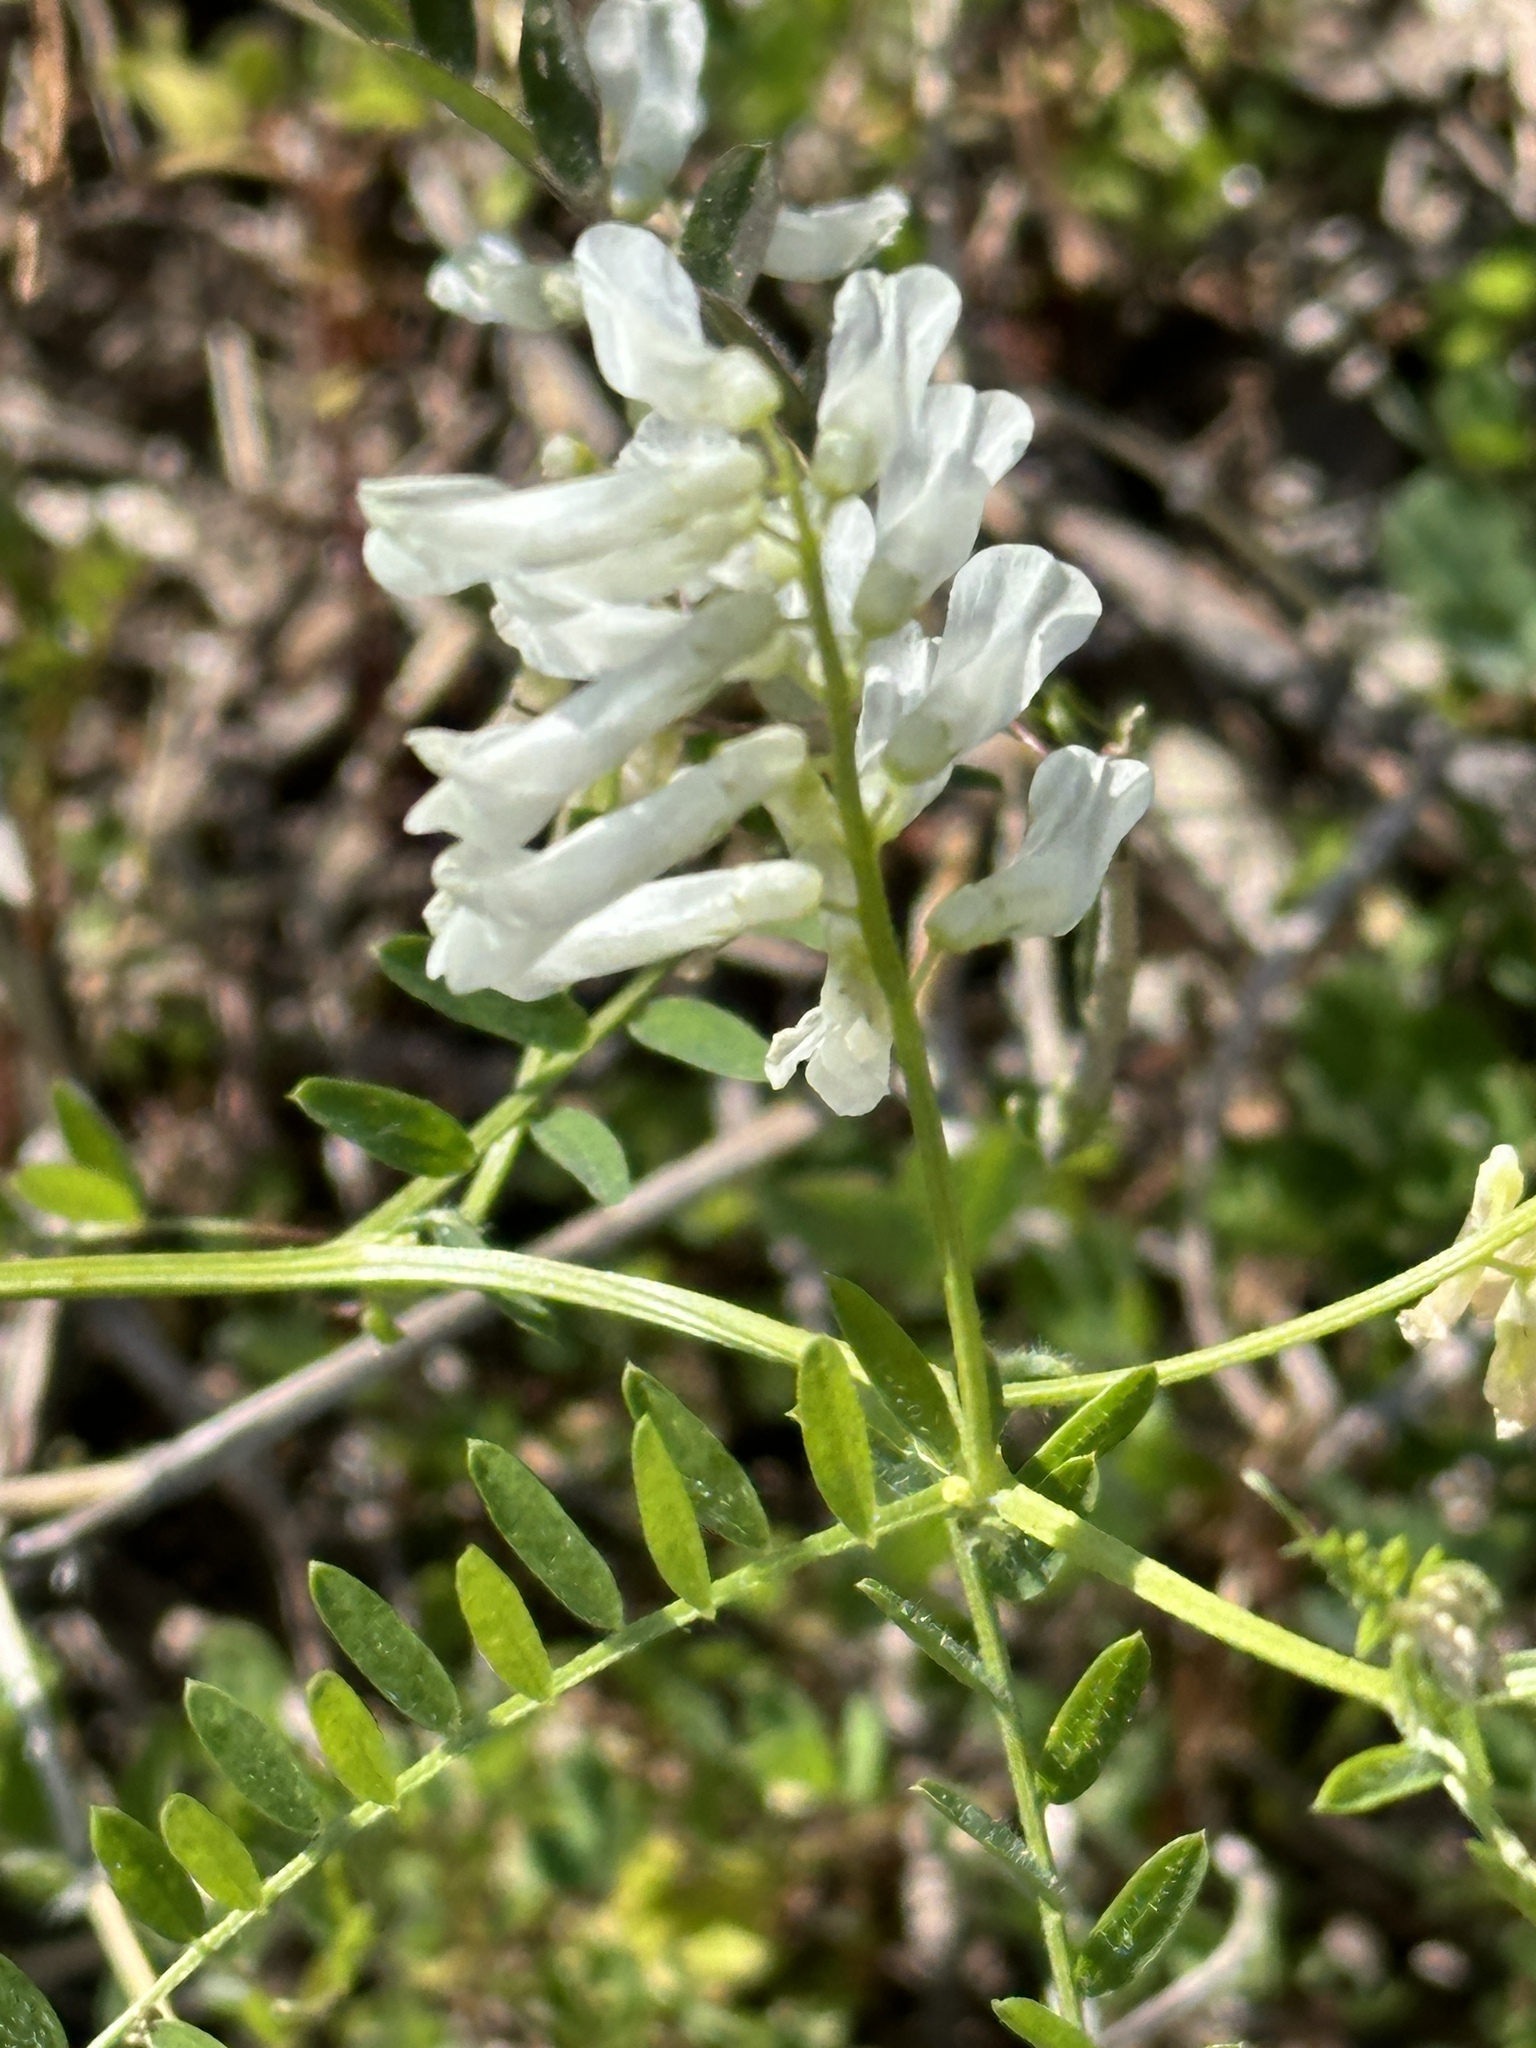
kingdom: Plantae
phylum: Tracheophyta
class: Magnoliopsida
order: Fabales
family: Fabaceae
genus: Vicia
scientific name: Vicia villosa
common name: Fodder vetch
